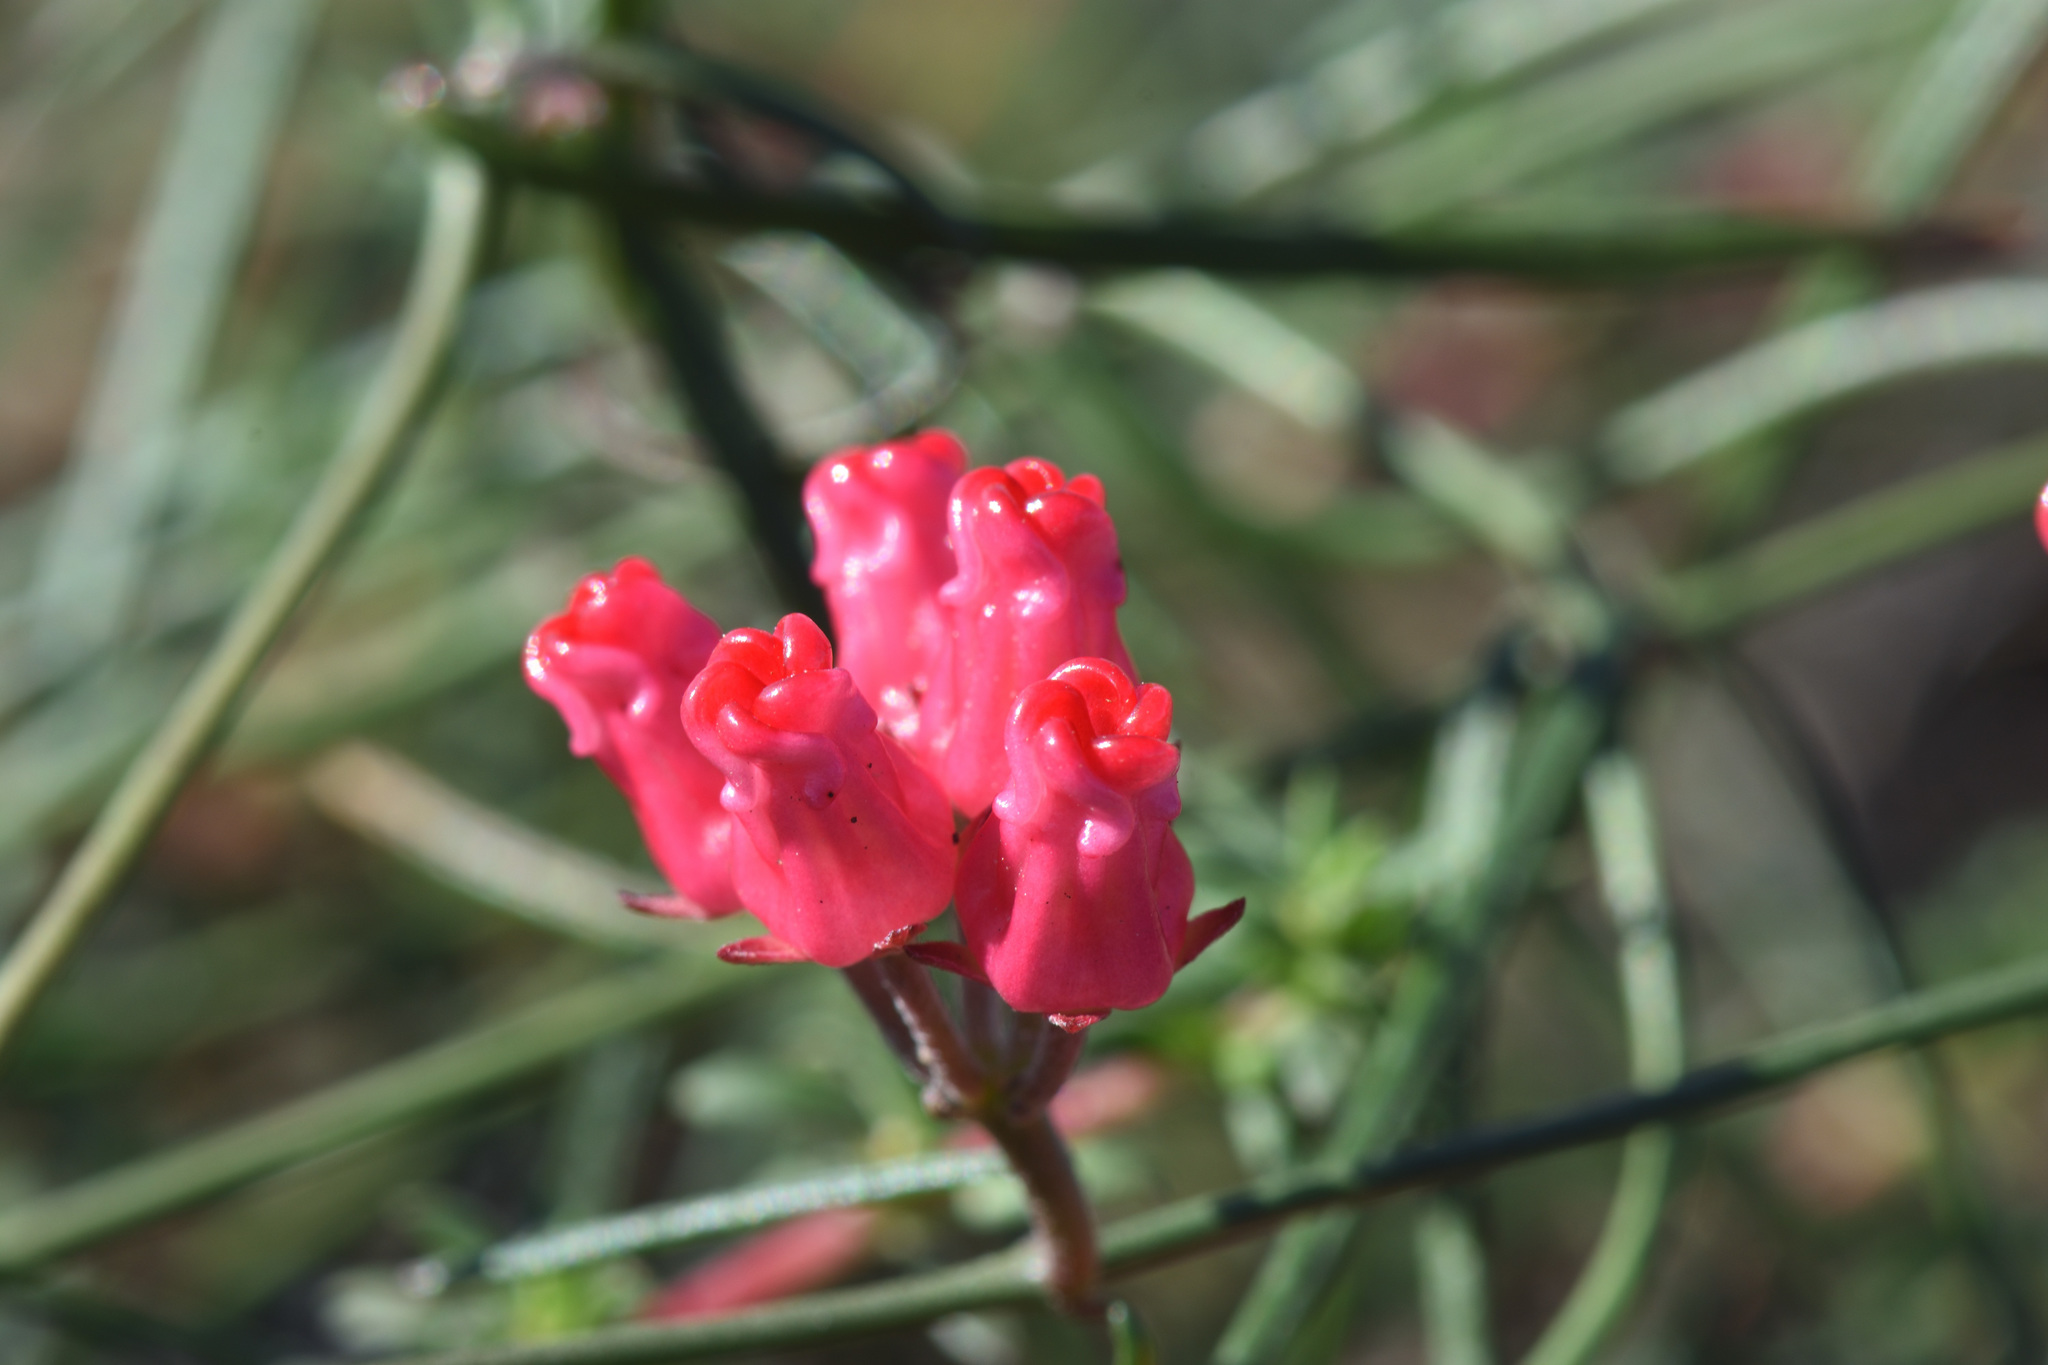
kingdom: Plantae
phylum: Tracheophyta
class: Magnoliopsida
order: Gentianales
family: Apocynaceae
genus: Microloma
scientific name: Microloma tenuifolium
